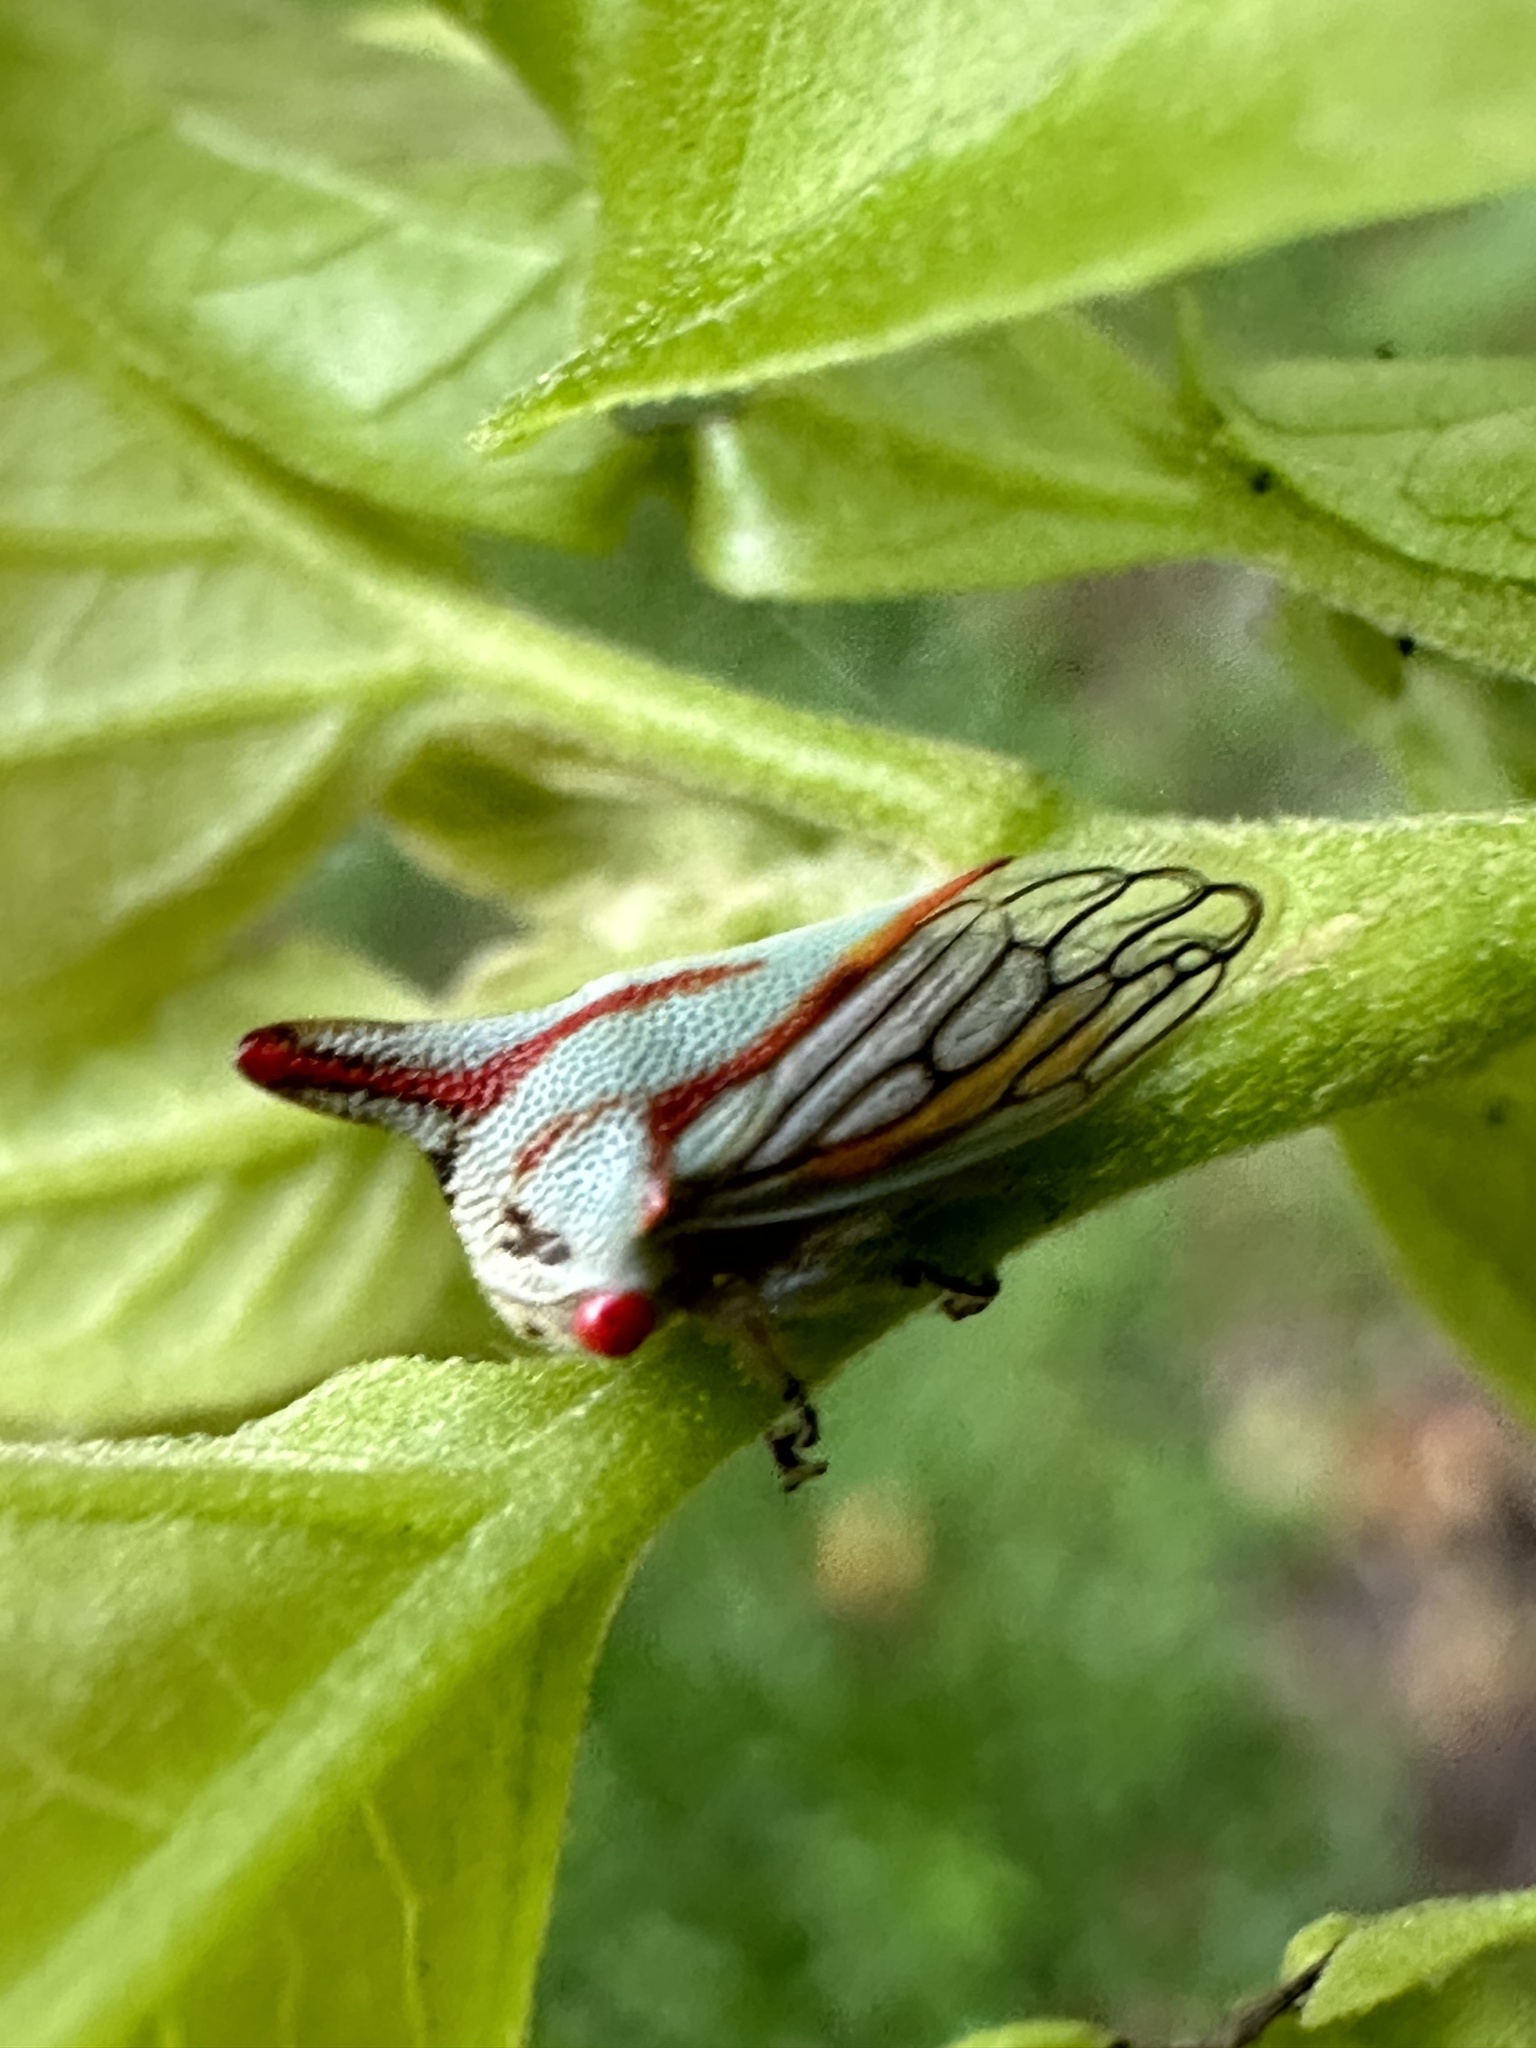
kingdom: Animalia
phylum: Arthropoda
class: Insecta
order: Hemiptera
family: Membracidae
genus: Platycotis
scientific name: Platycotis vittatus
